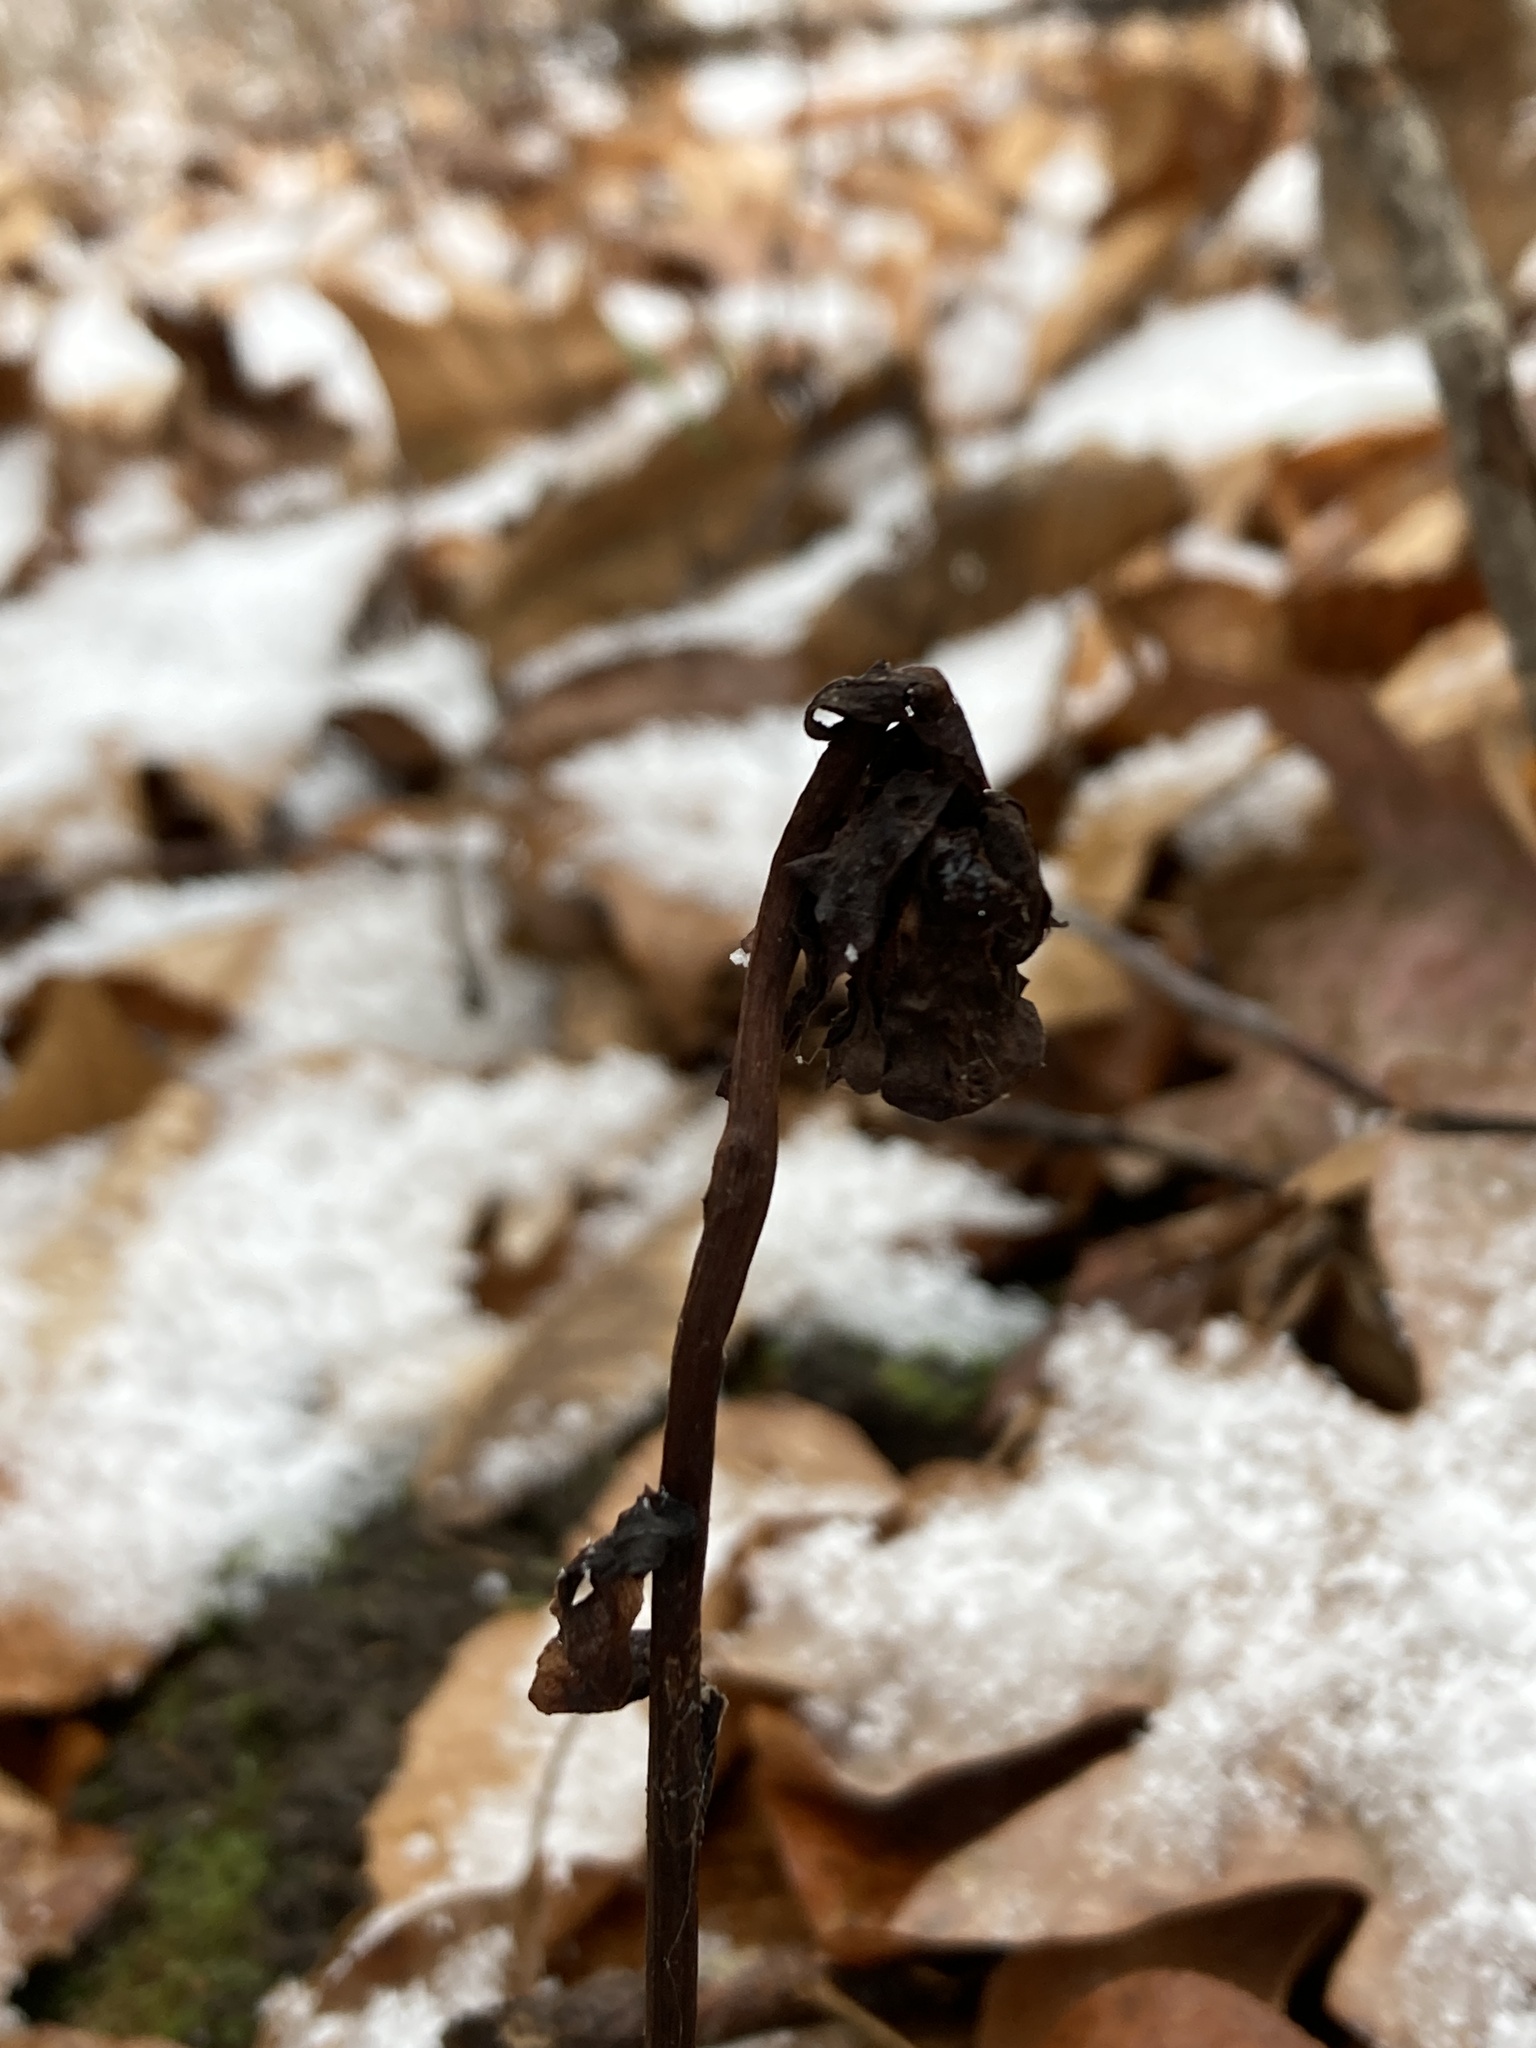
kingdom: Plantae
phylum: Tracheophyta
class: Magnoliopsida
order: Ericales
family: Ericaceae
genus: Monotropa
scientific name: Monotropa uniflora
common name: Convulsion root
